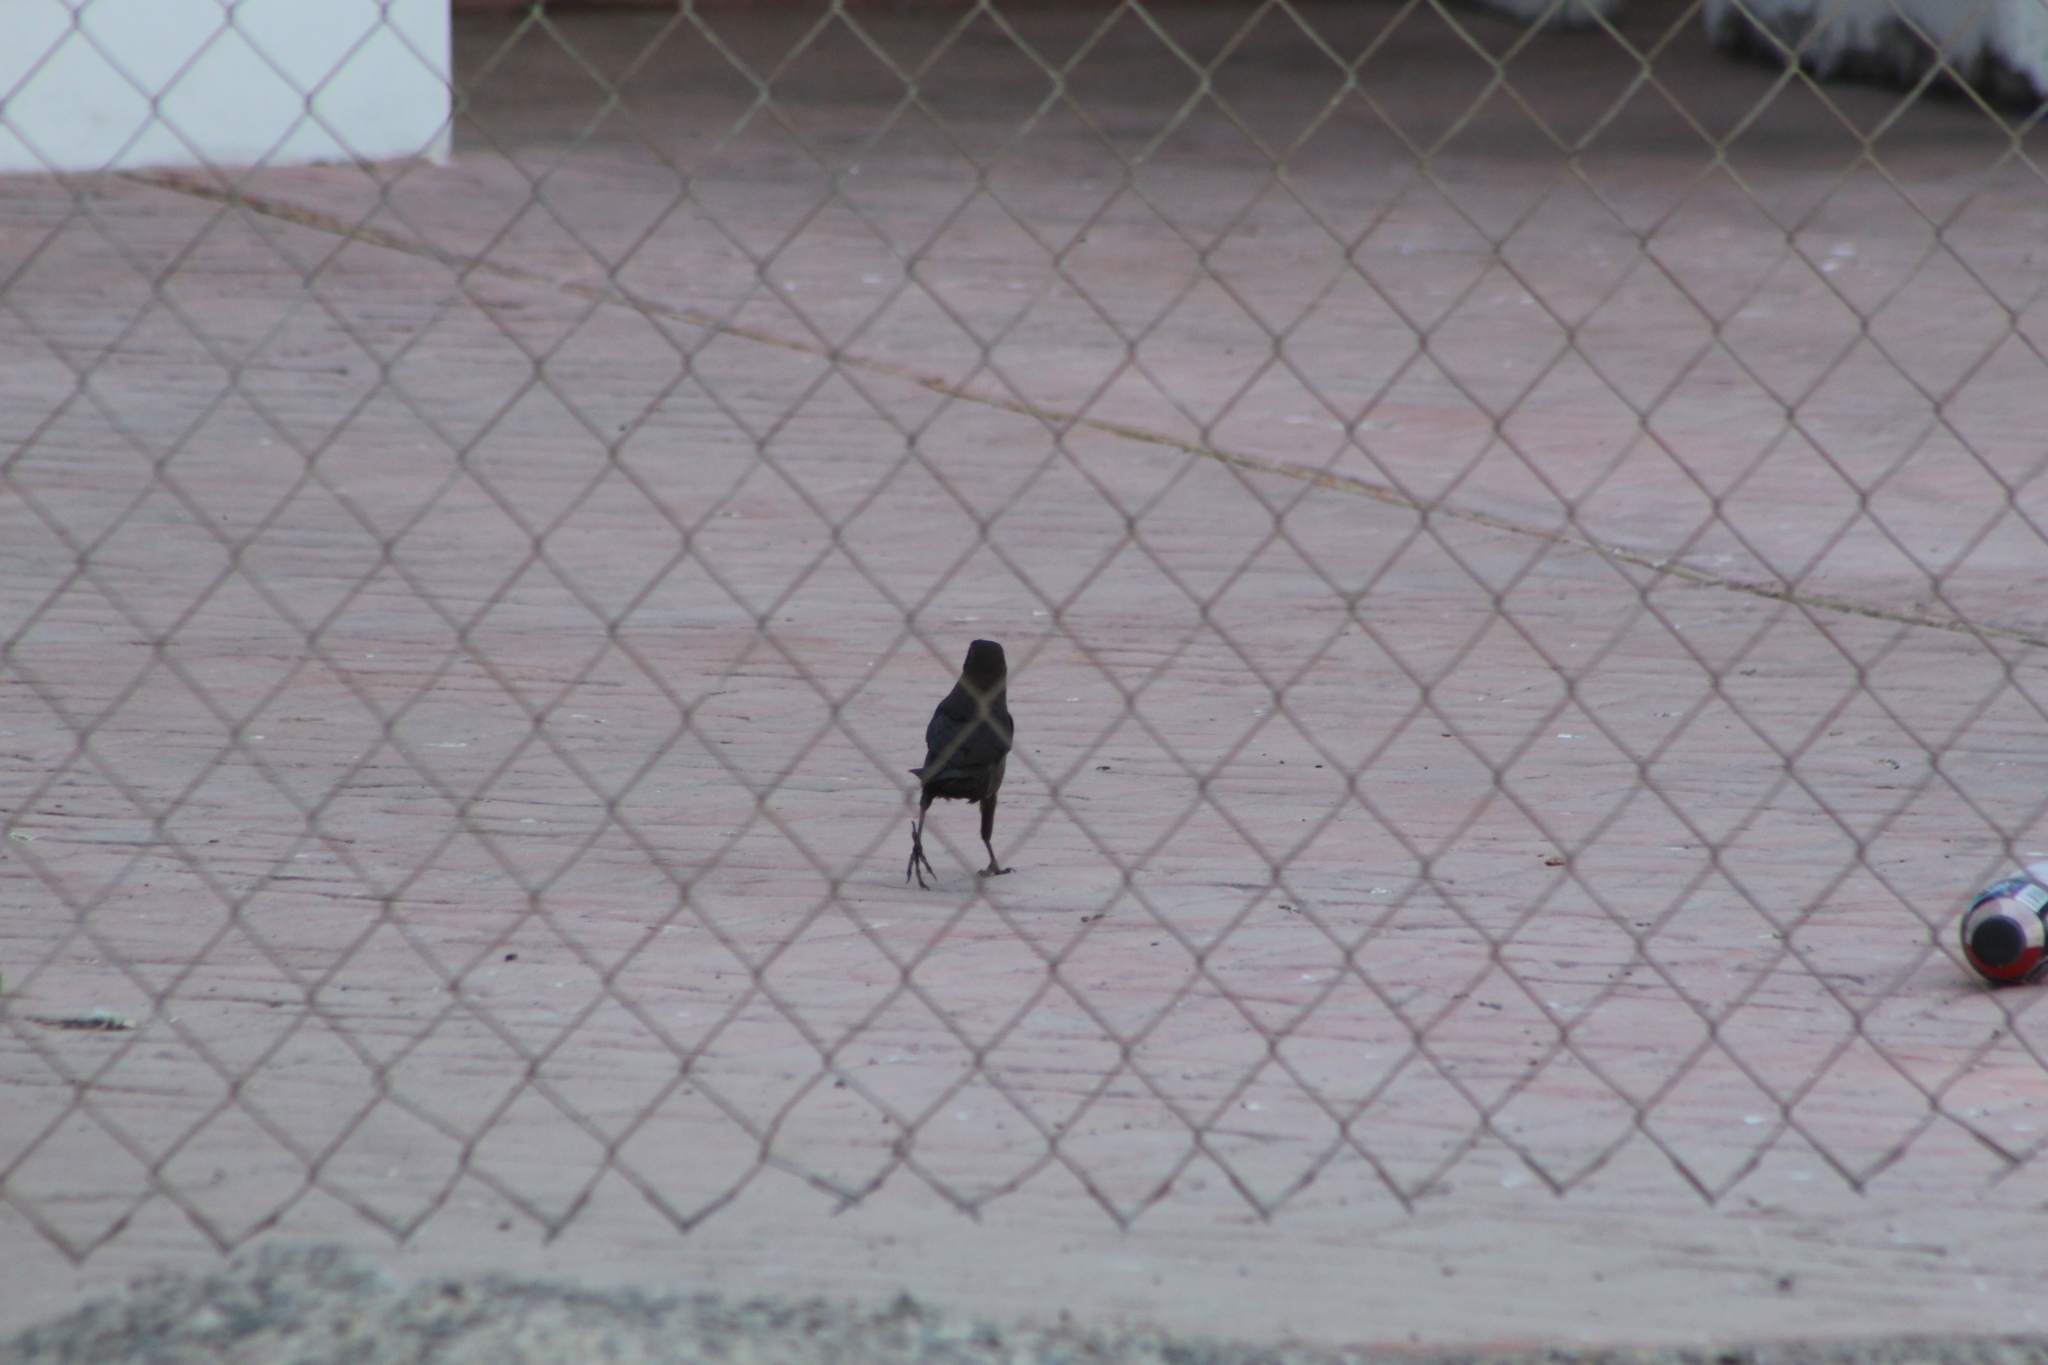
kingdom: Animalia
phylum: Chordata
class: Aves
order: Passeriformes
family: Icteridae
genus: Quiscalus
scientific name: Quiscalus mexicanus
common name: Great-tailed grackle
